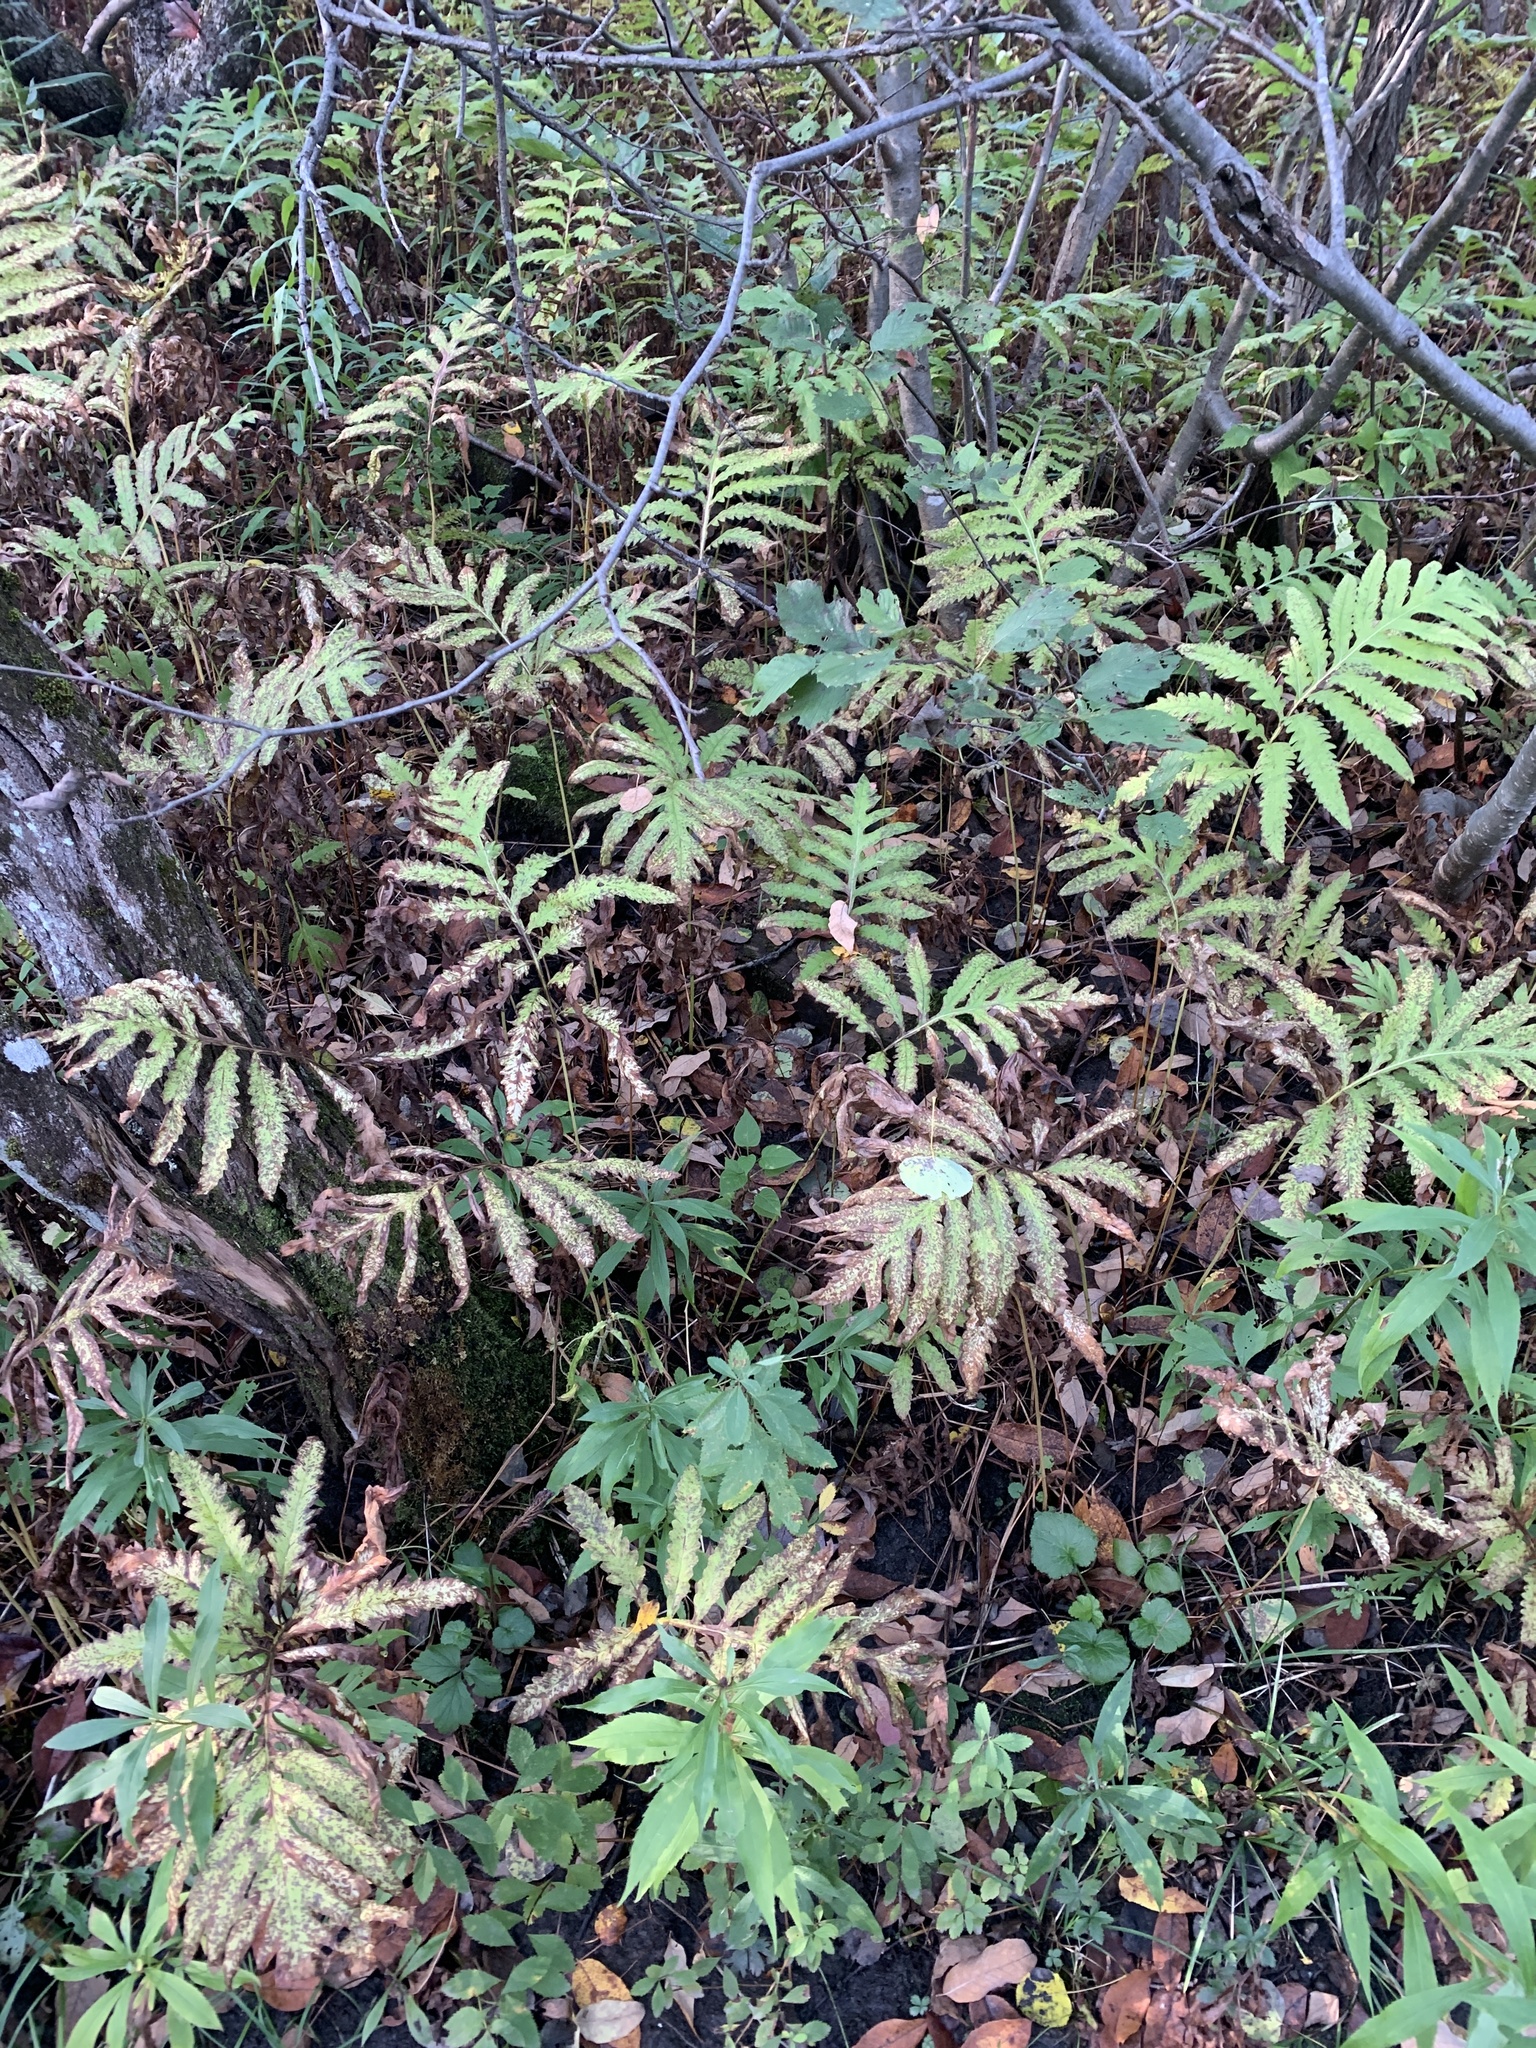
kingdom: Plantae
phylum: Tracheophyta
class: Polypodiopsida
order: Polypodiales
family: Onocleaceae
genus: Onoclea
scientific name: Onoclea sensibilis
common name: Sensitive fern
